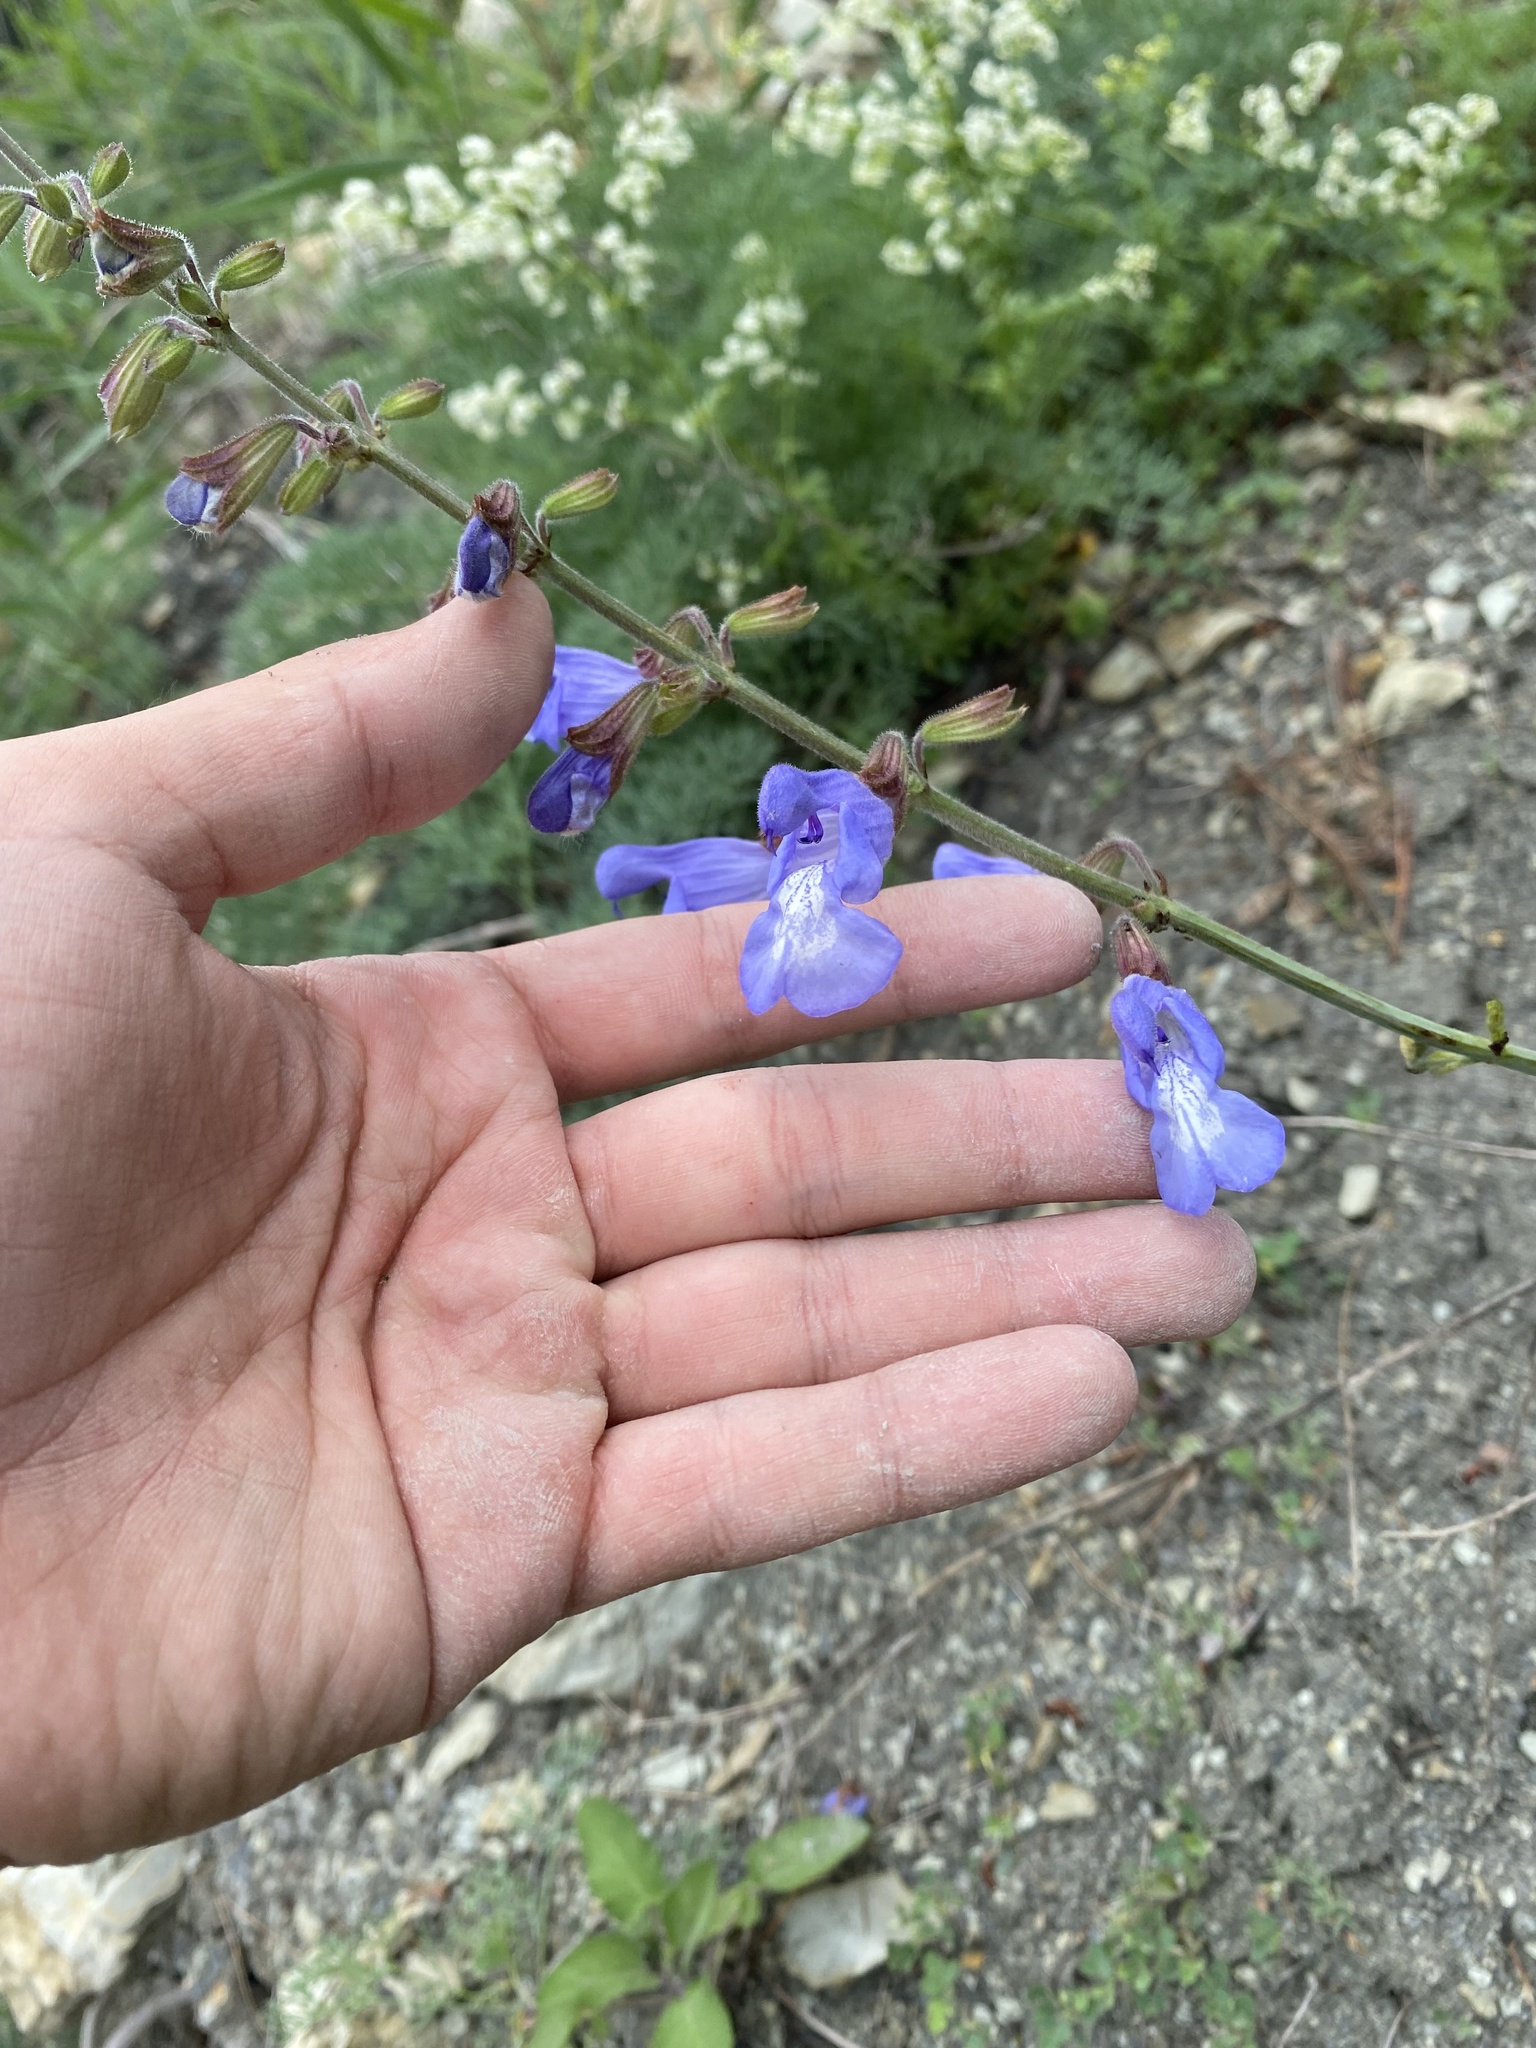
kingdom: Plantae
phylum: Tracheophyta
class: Magnoliopsida
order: Lamiales
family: Lamiaceae
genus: Salvia
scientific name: Salvia ringens
